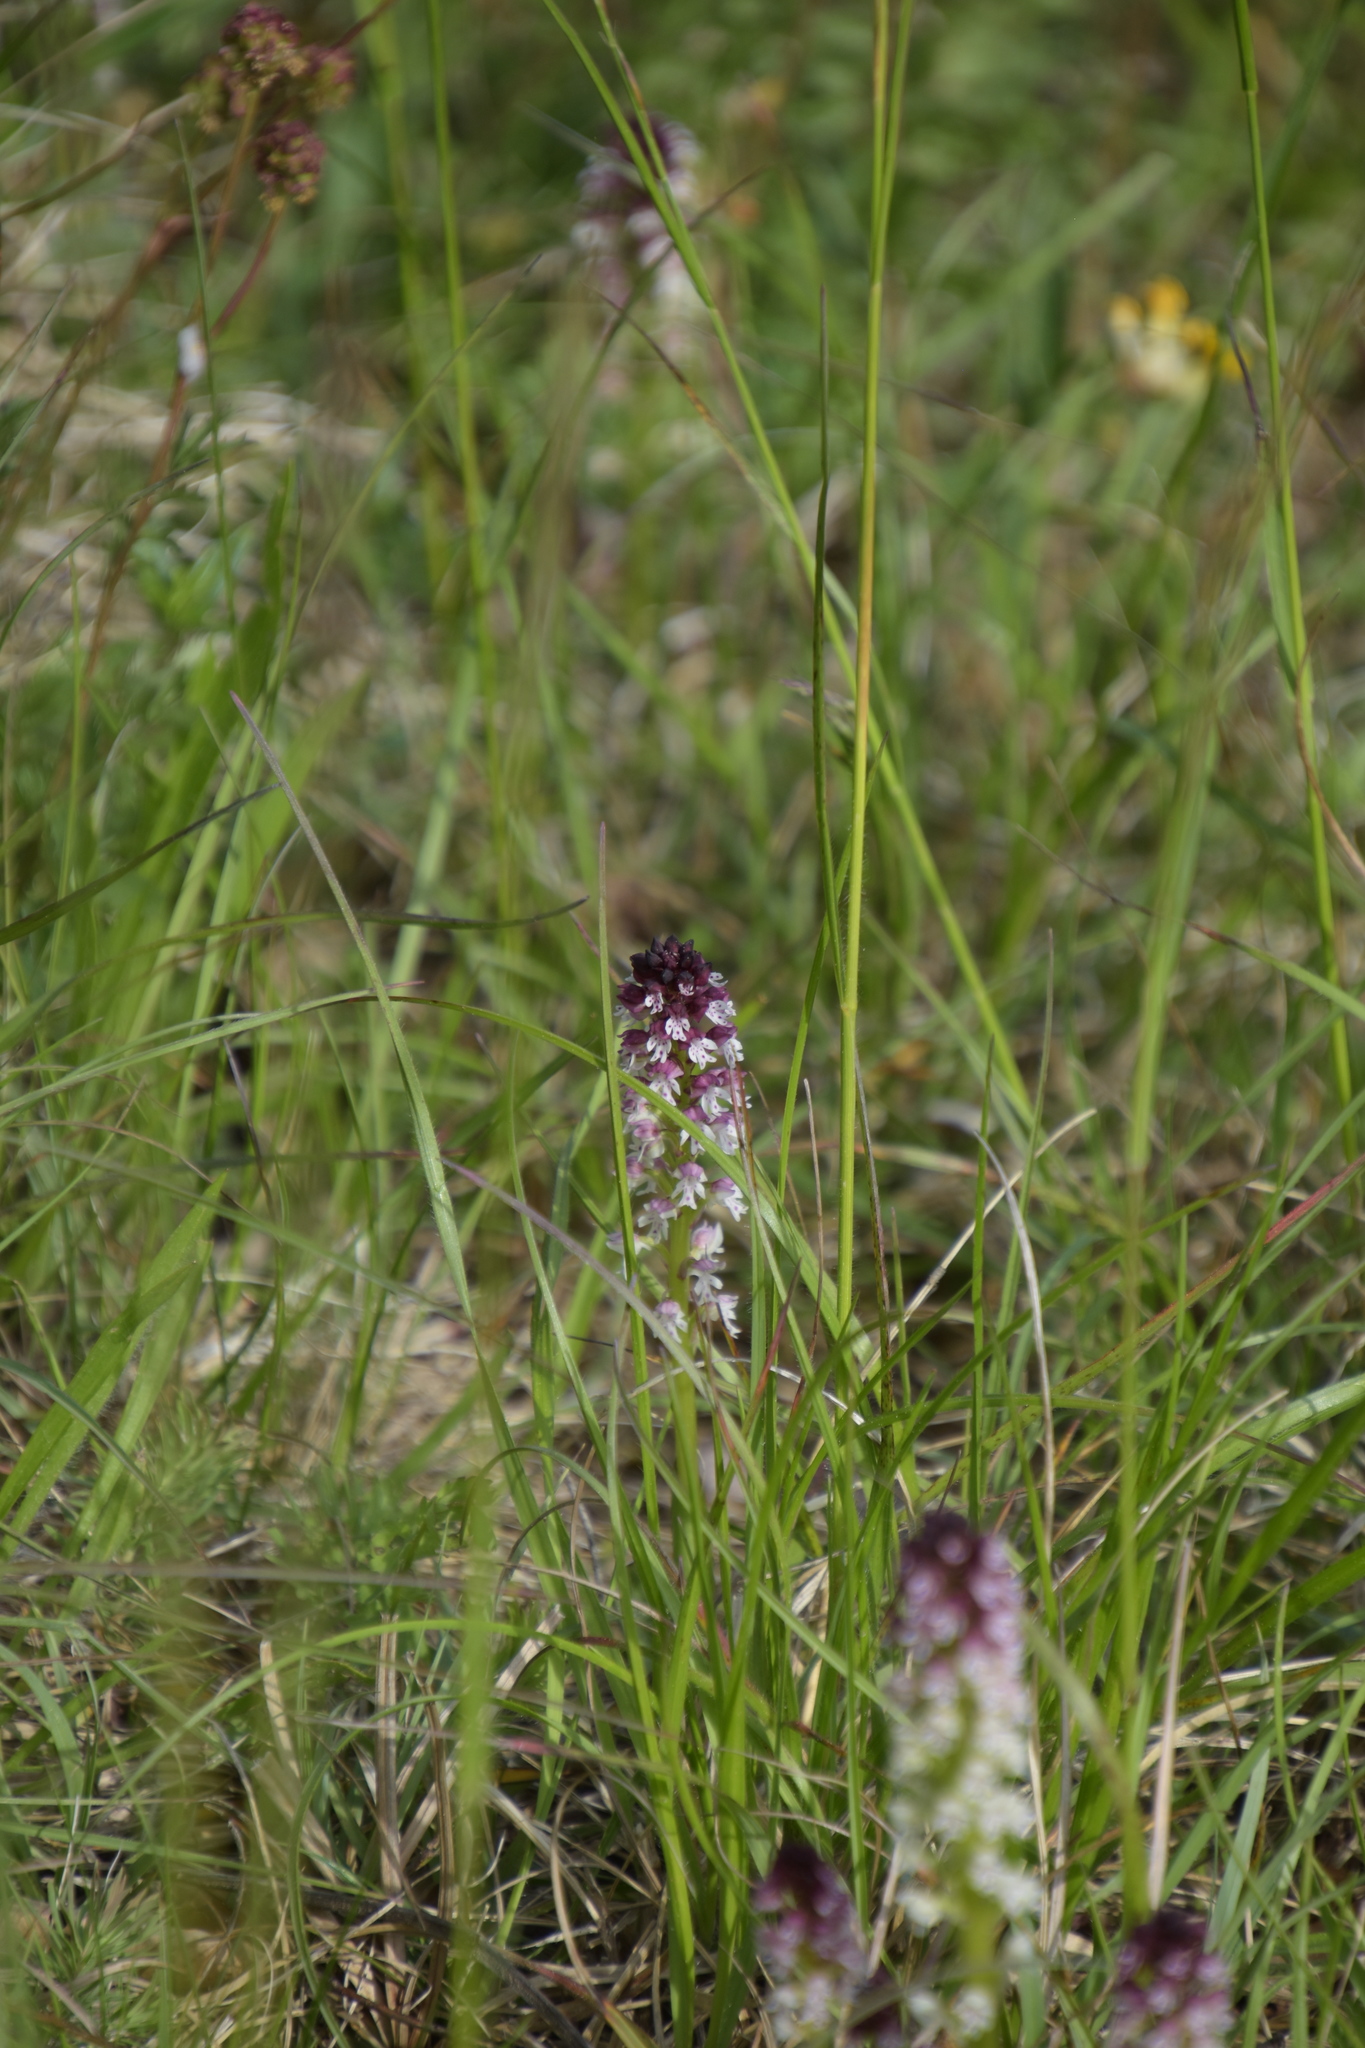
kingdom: Plantae
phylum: Tracheophyta
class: Liliopsida
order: Asparagales
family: Orchidaceae
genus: Neotinea
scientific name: Neotinea ustulata
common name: Burnt orchid
